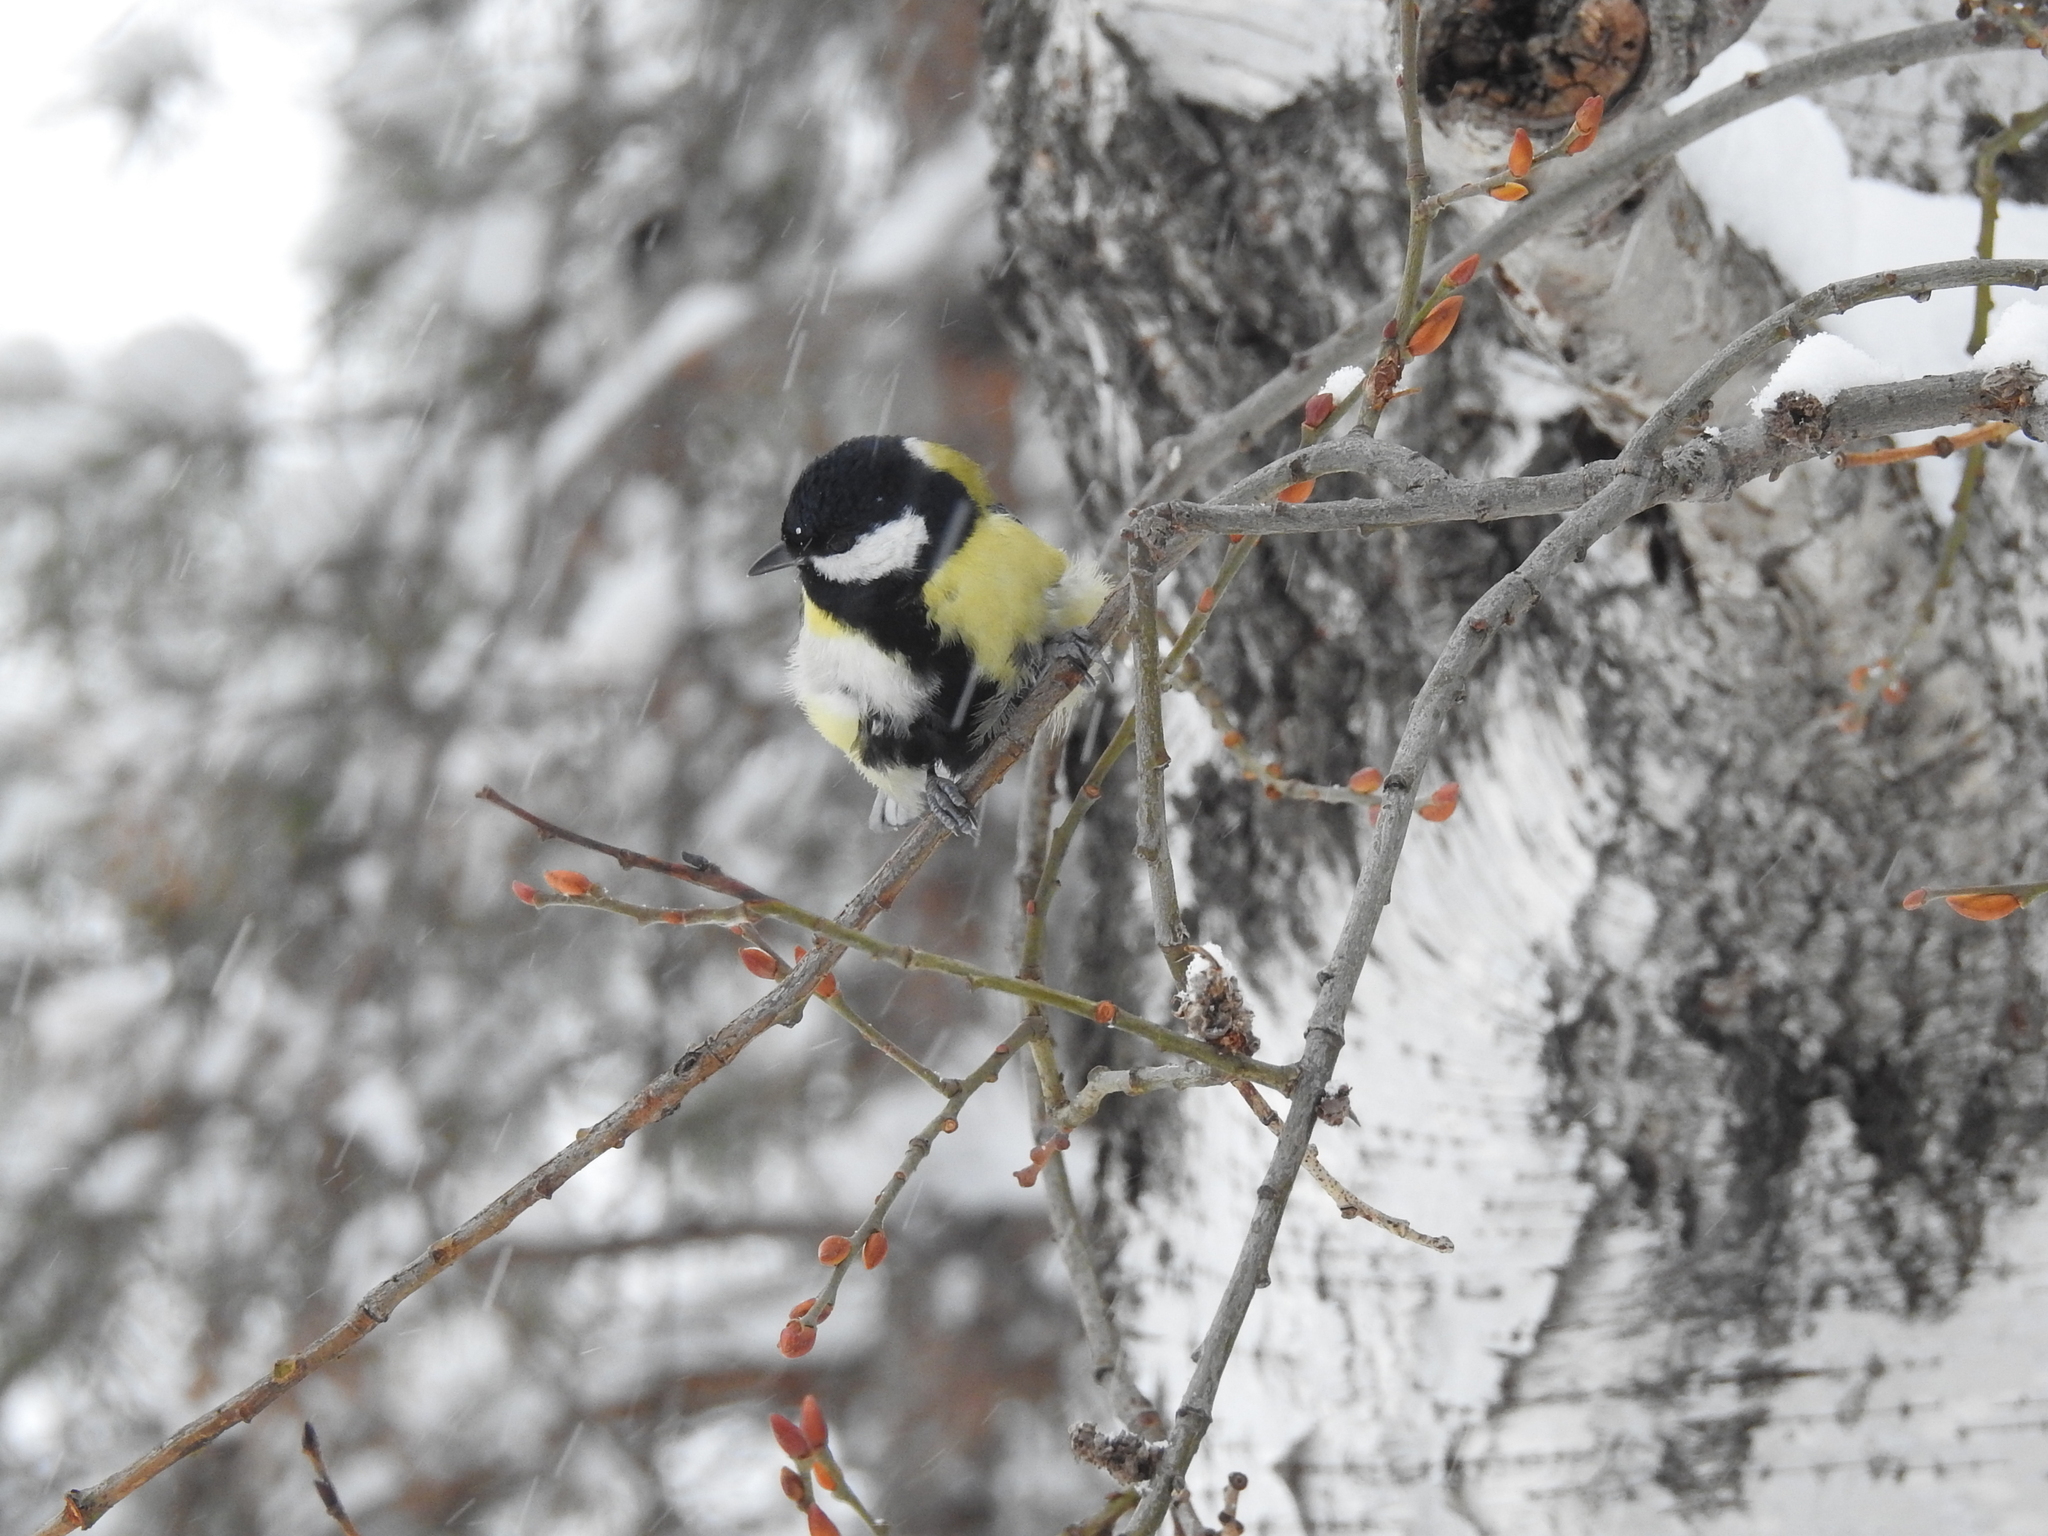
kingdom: Animalia
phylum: Chordata
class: Aves
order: Passeriformes
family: Paridae
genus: Parus
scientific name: Parus major
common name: Great tit
